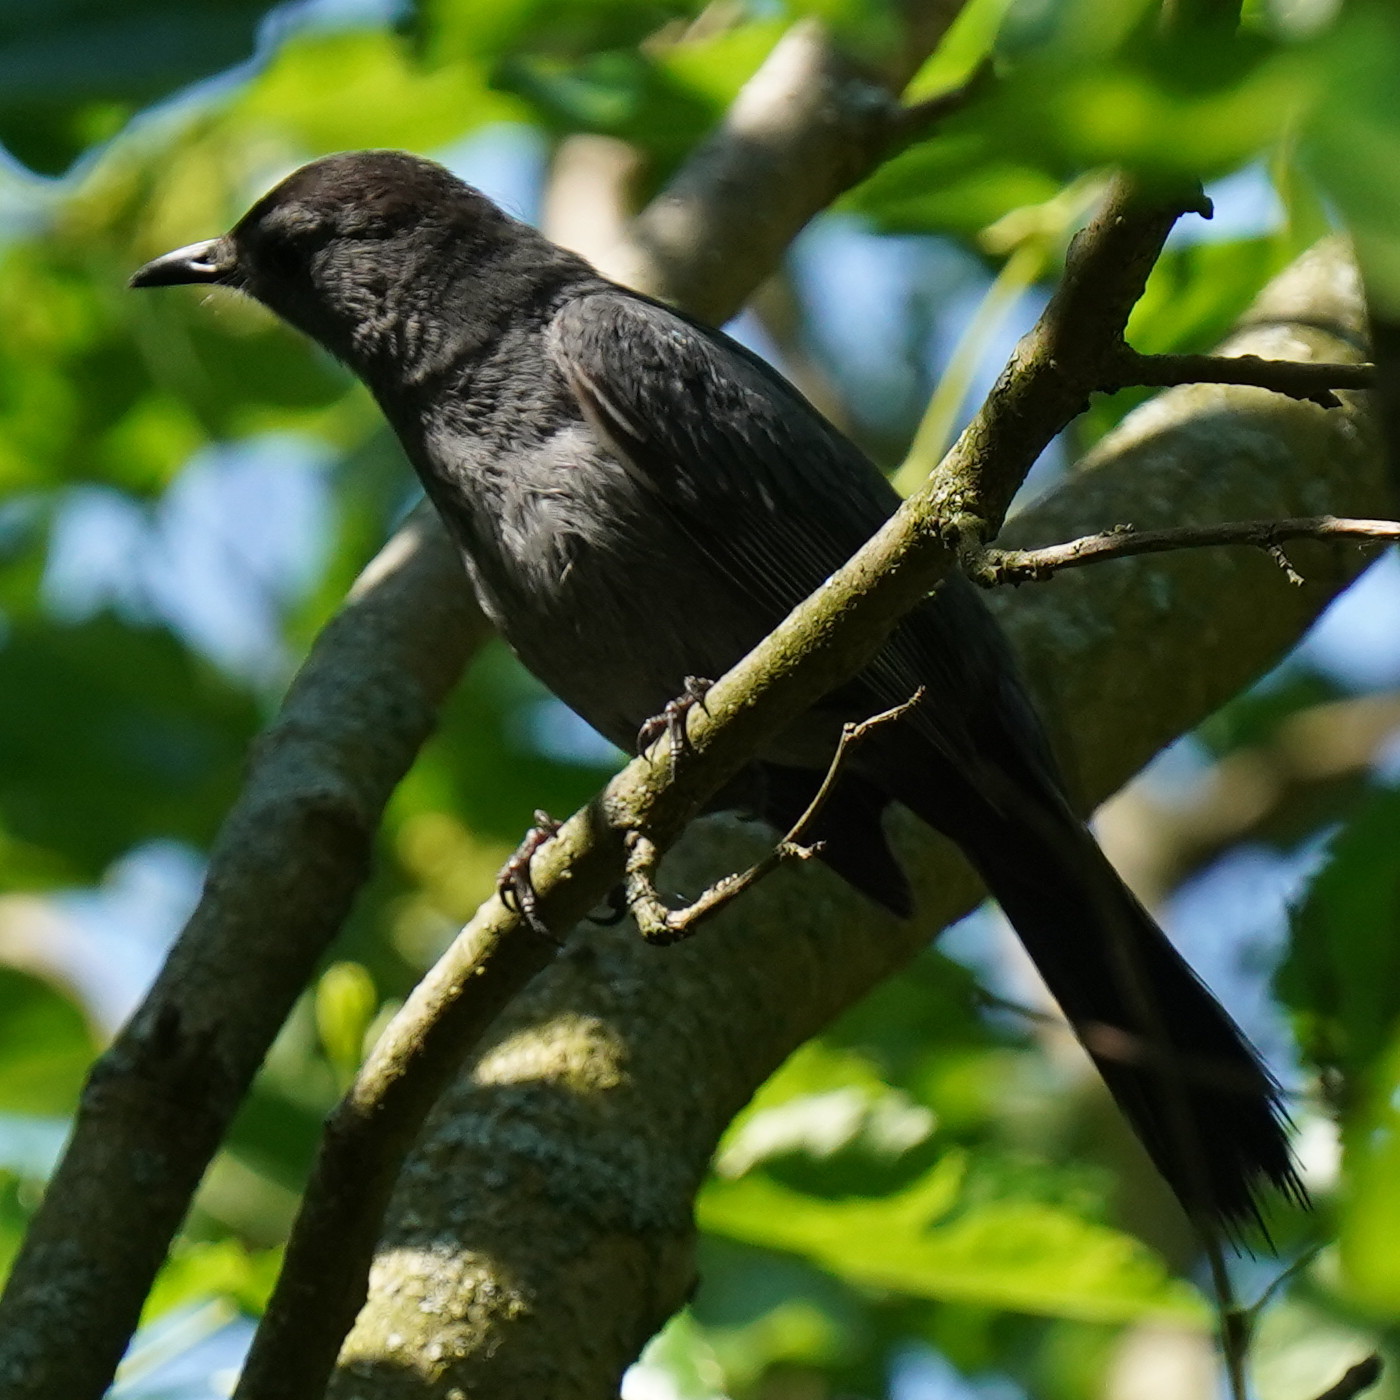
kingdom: Animalia
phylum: Chordata
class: Aves
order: Passeriformes
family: Mimidae
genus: Dumetella
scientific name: Dumetella carolinensis
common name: Gray catbird
